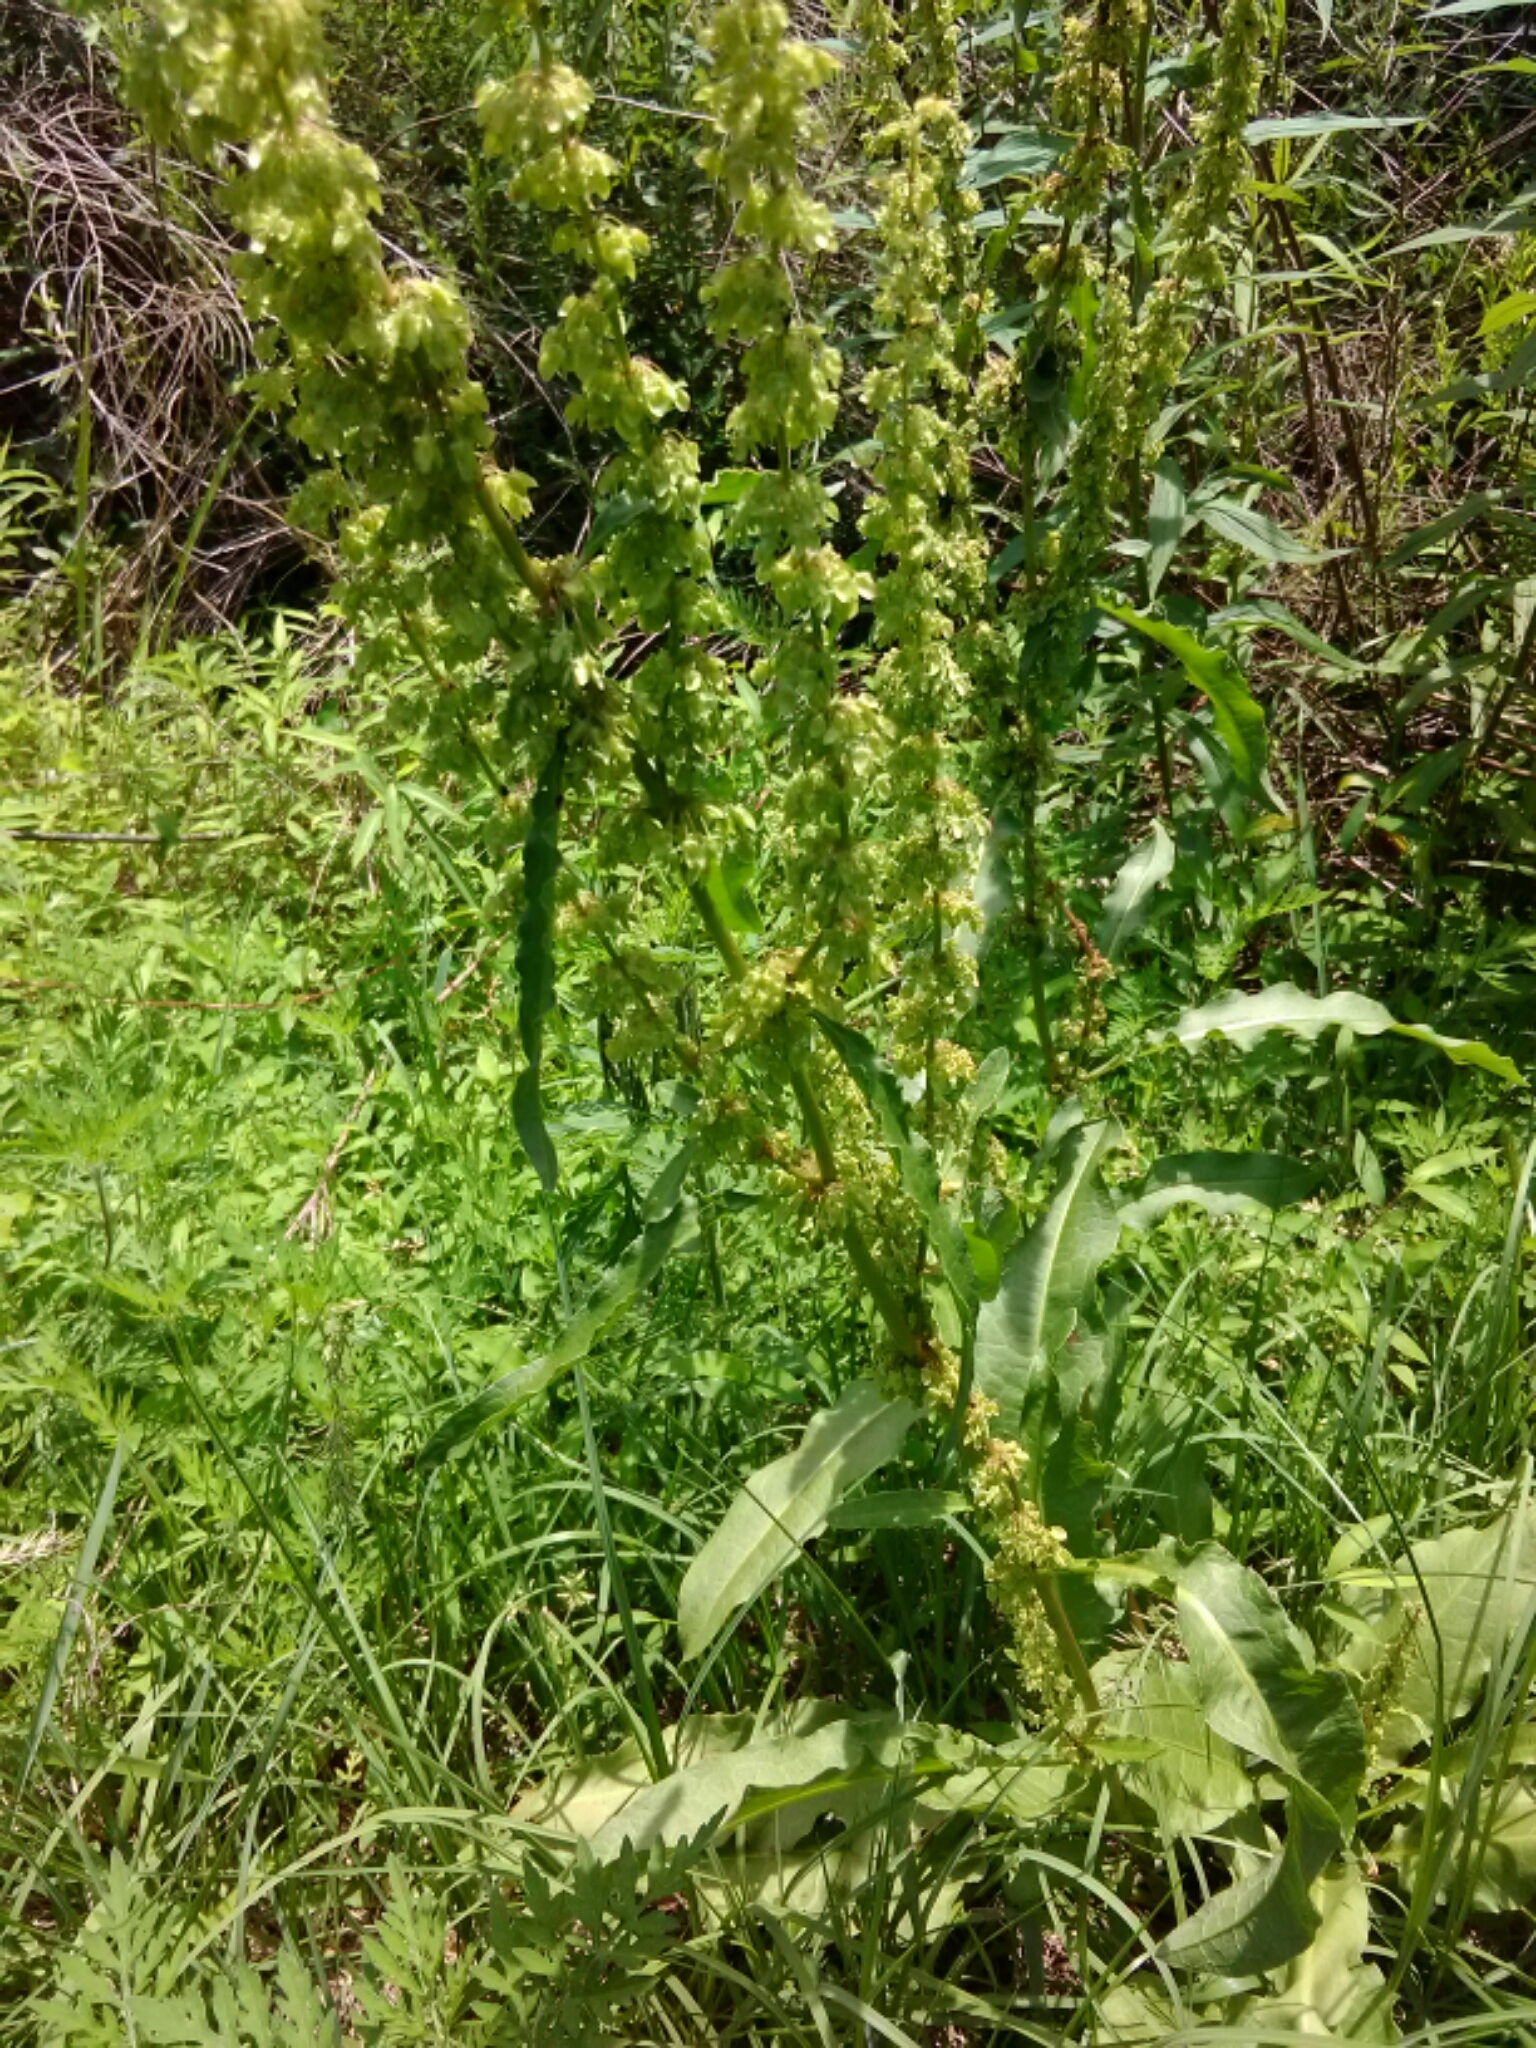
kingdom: Plantae
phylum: Tracheophyta
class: Magnoliopsida
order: Caryophyllales
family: Polygonaceae
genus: Rumex
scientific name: Rumex crispus
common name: Curled dock
